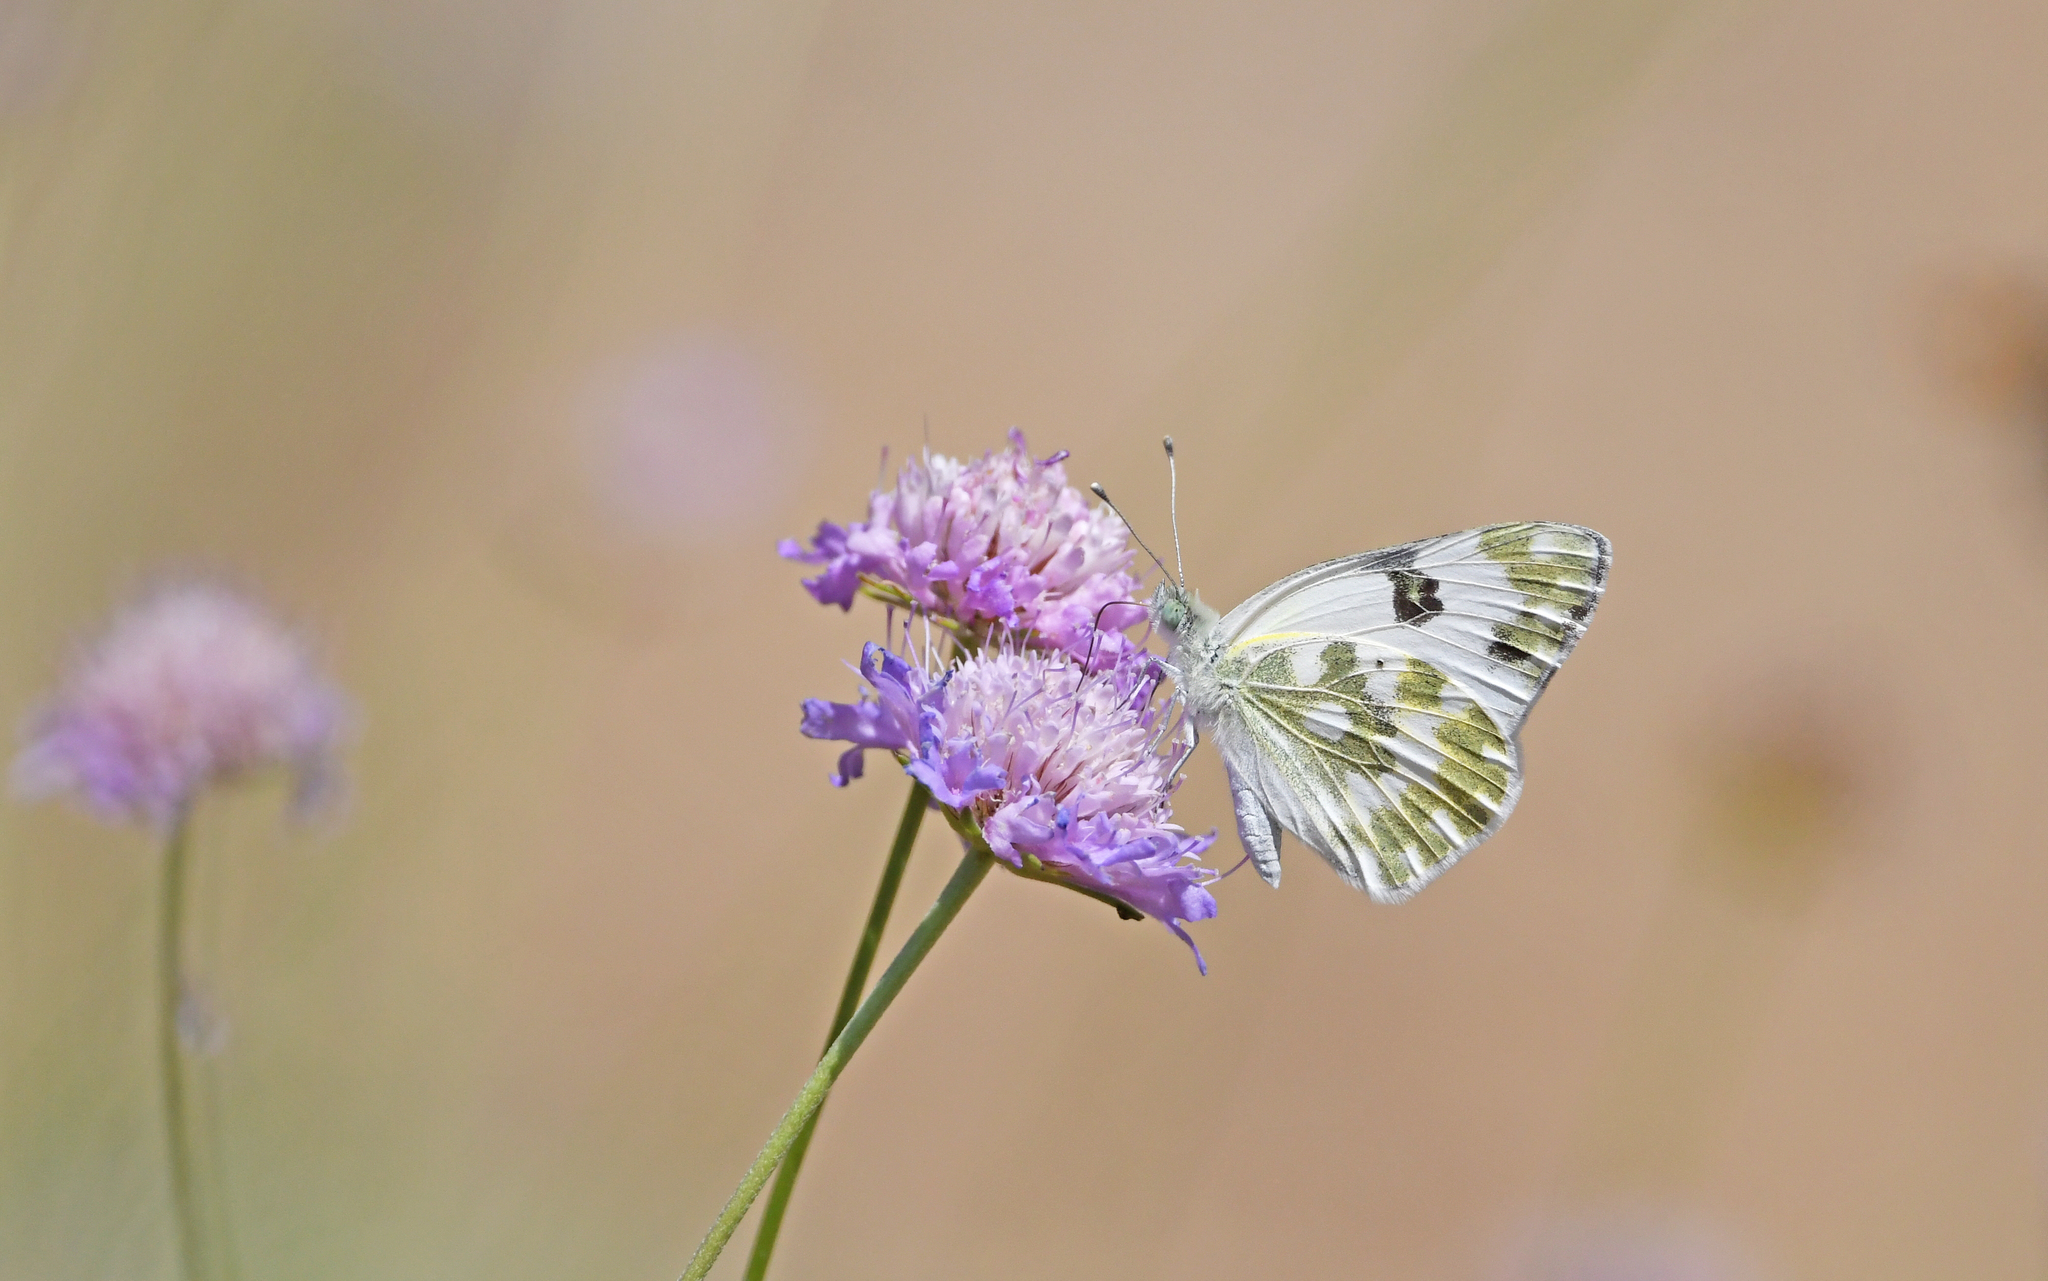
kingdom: Animalia
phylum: Arthropoda
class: Insecta
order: Lepidoptera
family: Pieridae
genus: Pontia
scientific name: Pontia daplidice
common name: Bath white
